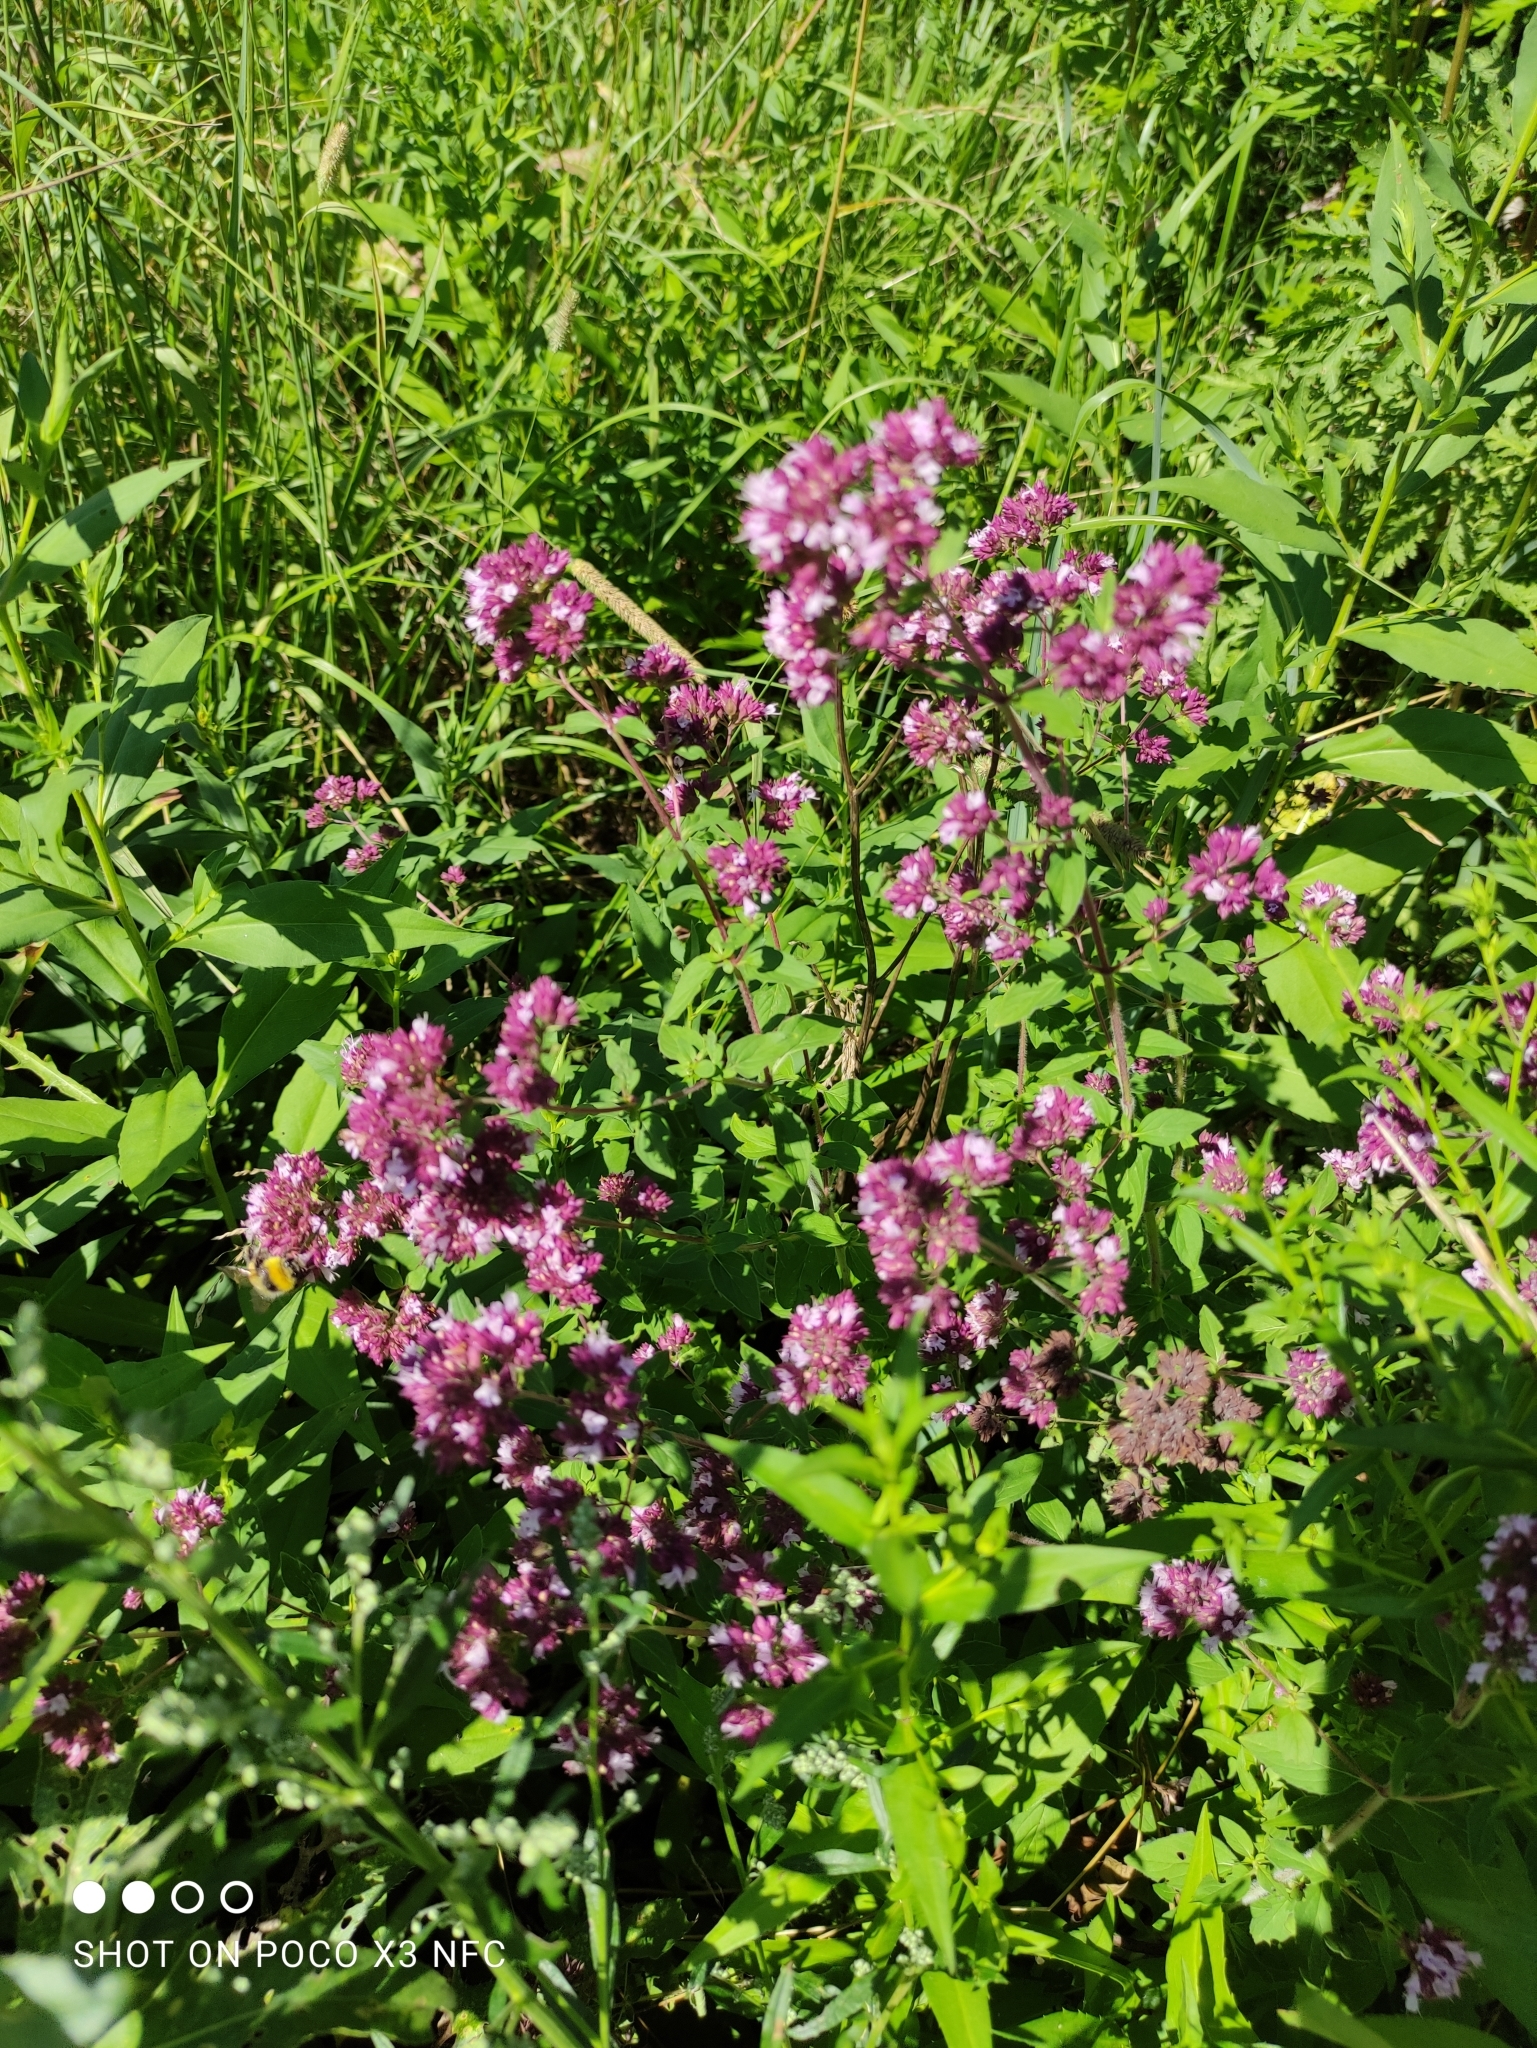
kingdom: Plantae
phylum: Tracheophyta
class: Magnoliopsida
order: Lamiales
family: Lamiaceae
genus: Origanum
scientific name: Origanum vulgare
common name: Wild marjoram
